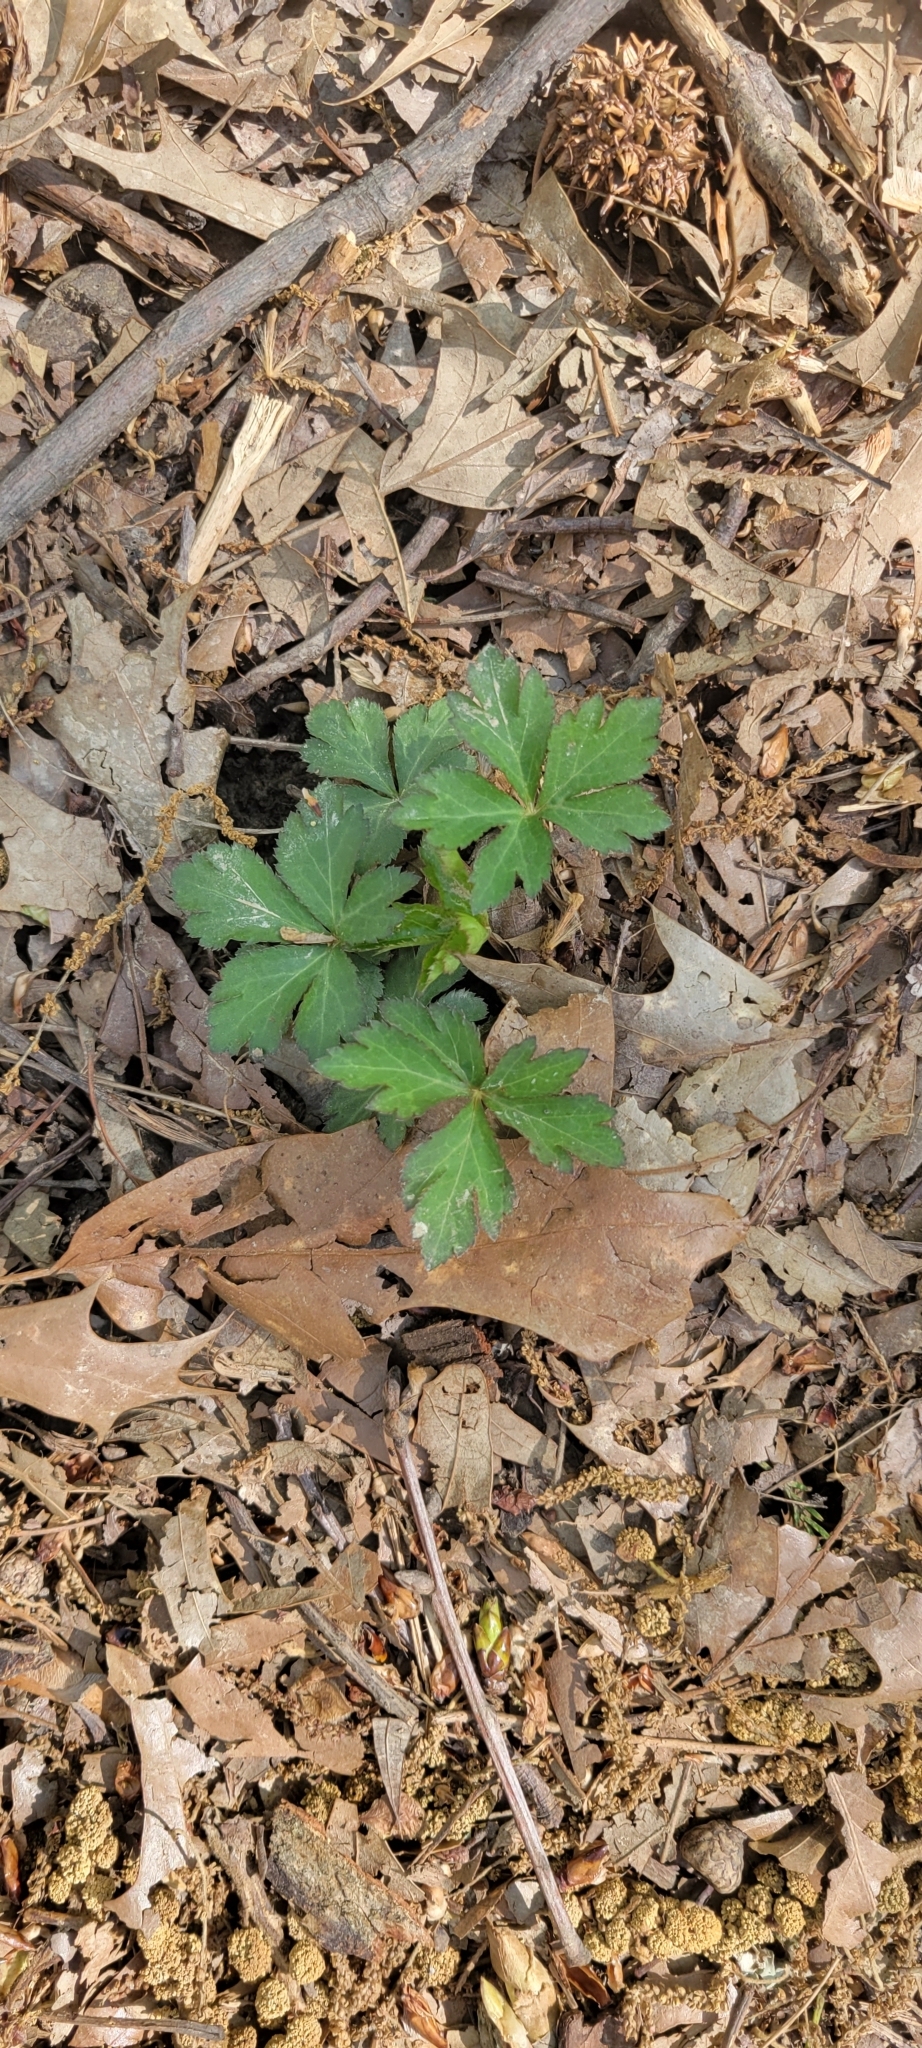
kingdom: Plantae
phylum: Tracheophyta
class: Magnoliopsida
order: Apiales
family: Apiaceae
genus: Sanicula
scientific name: Sanicula canadensis
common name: Canada sanicle
